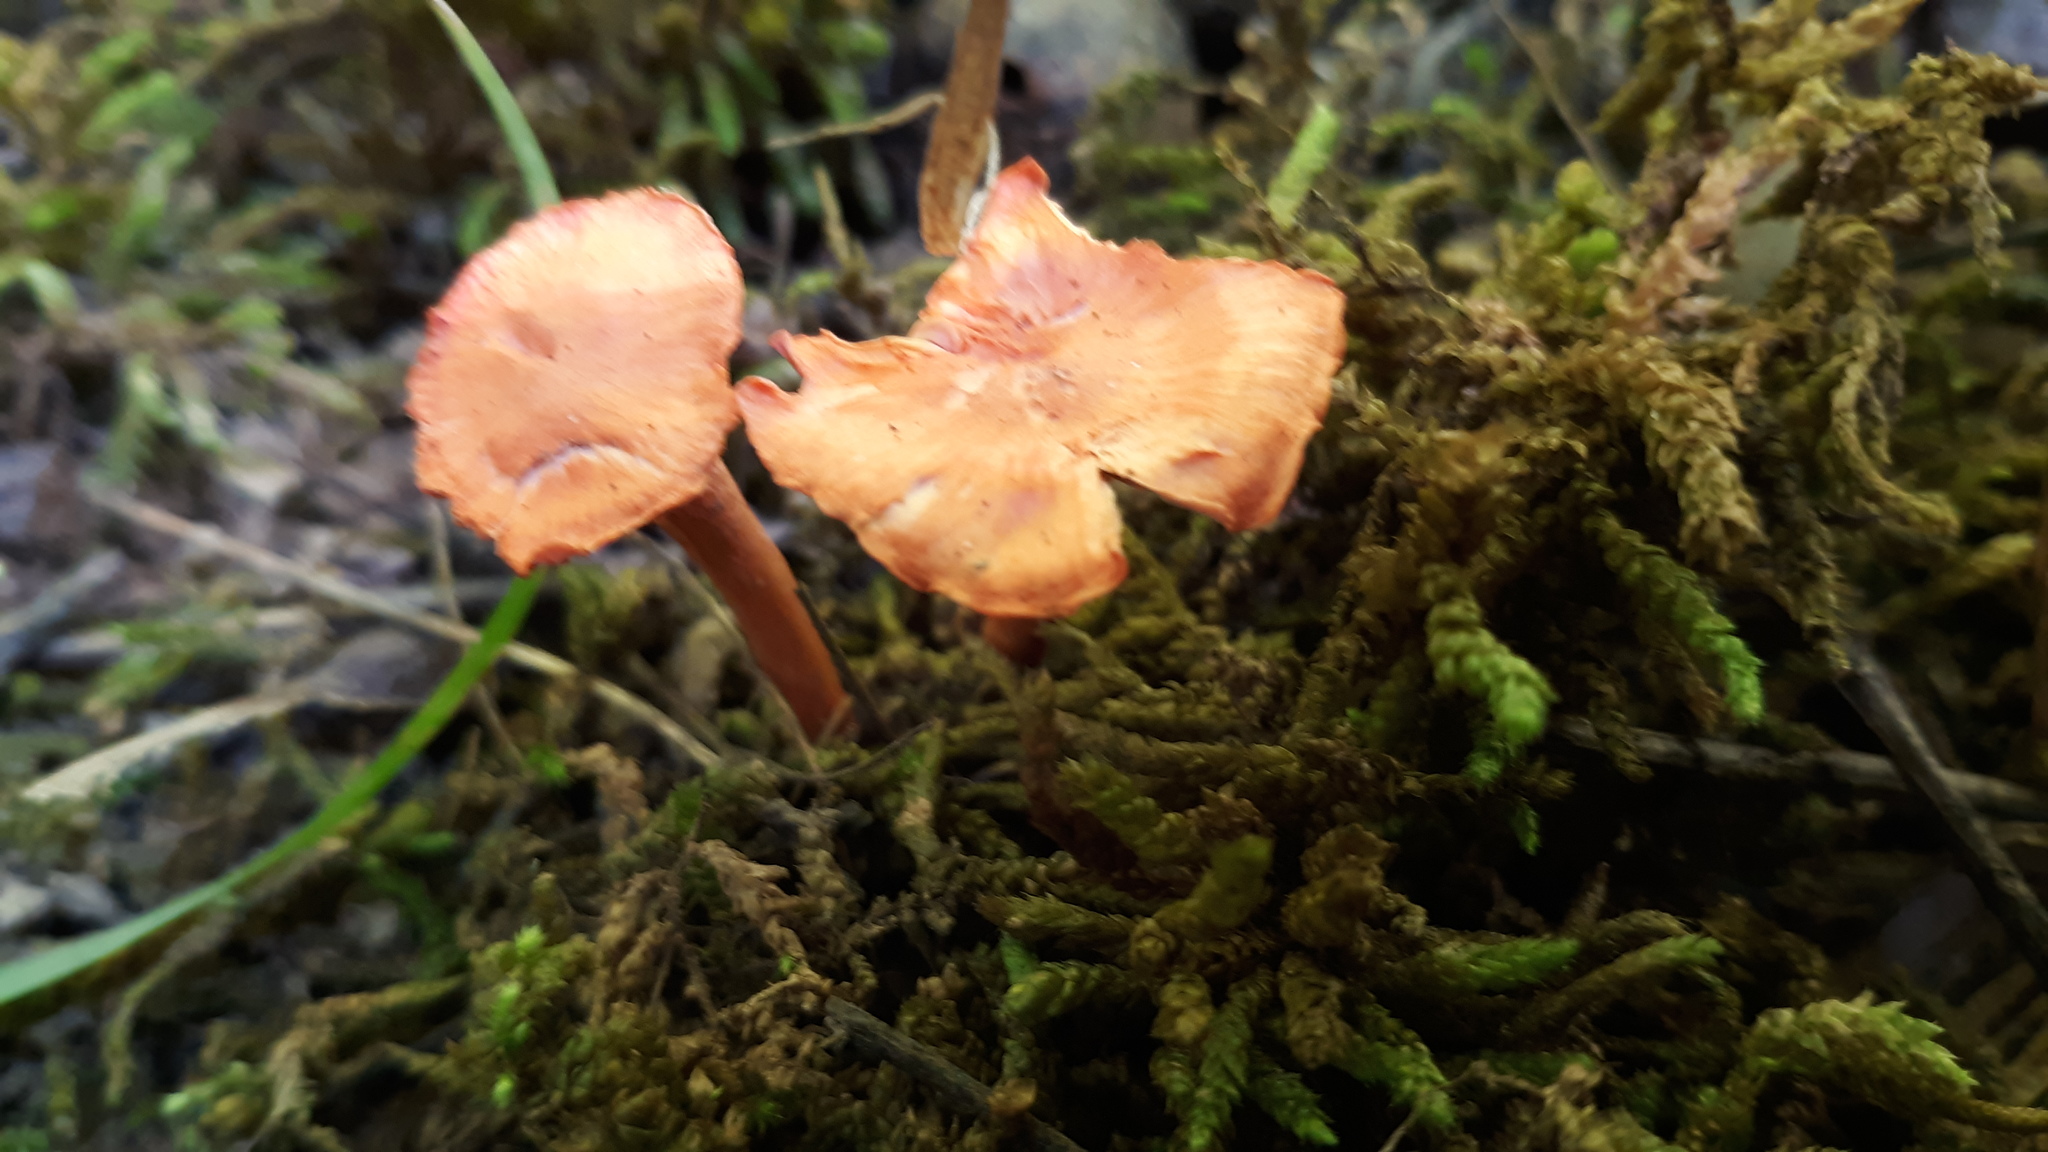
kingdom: Fungi
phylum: Basidiomycota
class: Agaricomycetes
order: Cantharellales
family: Hydnaceae
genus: Cantharellus
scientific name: Cantharellus cinnabarinus
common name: Cinnabar chanterelle
